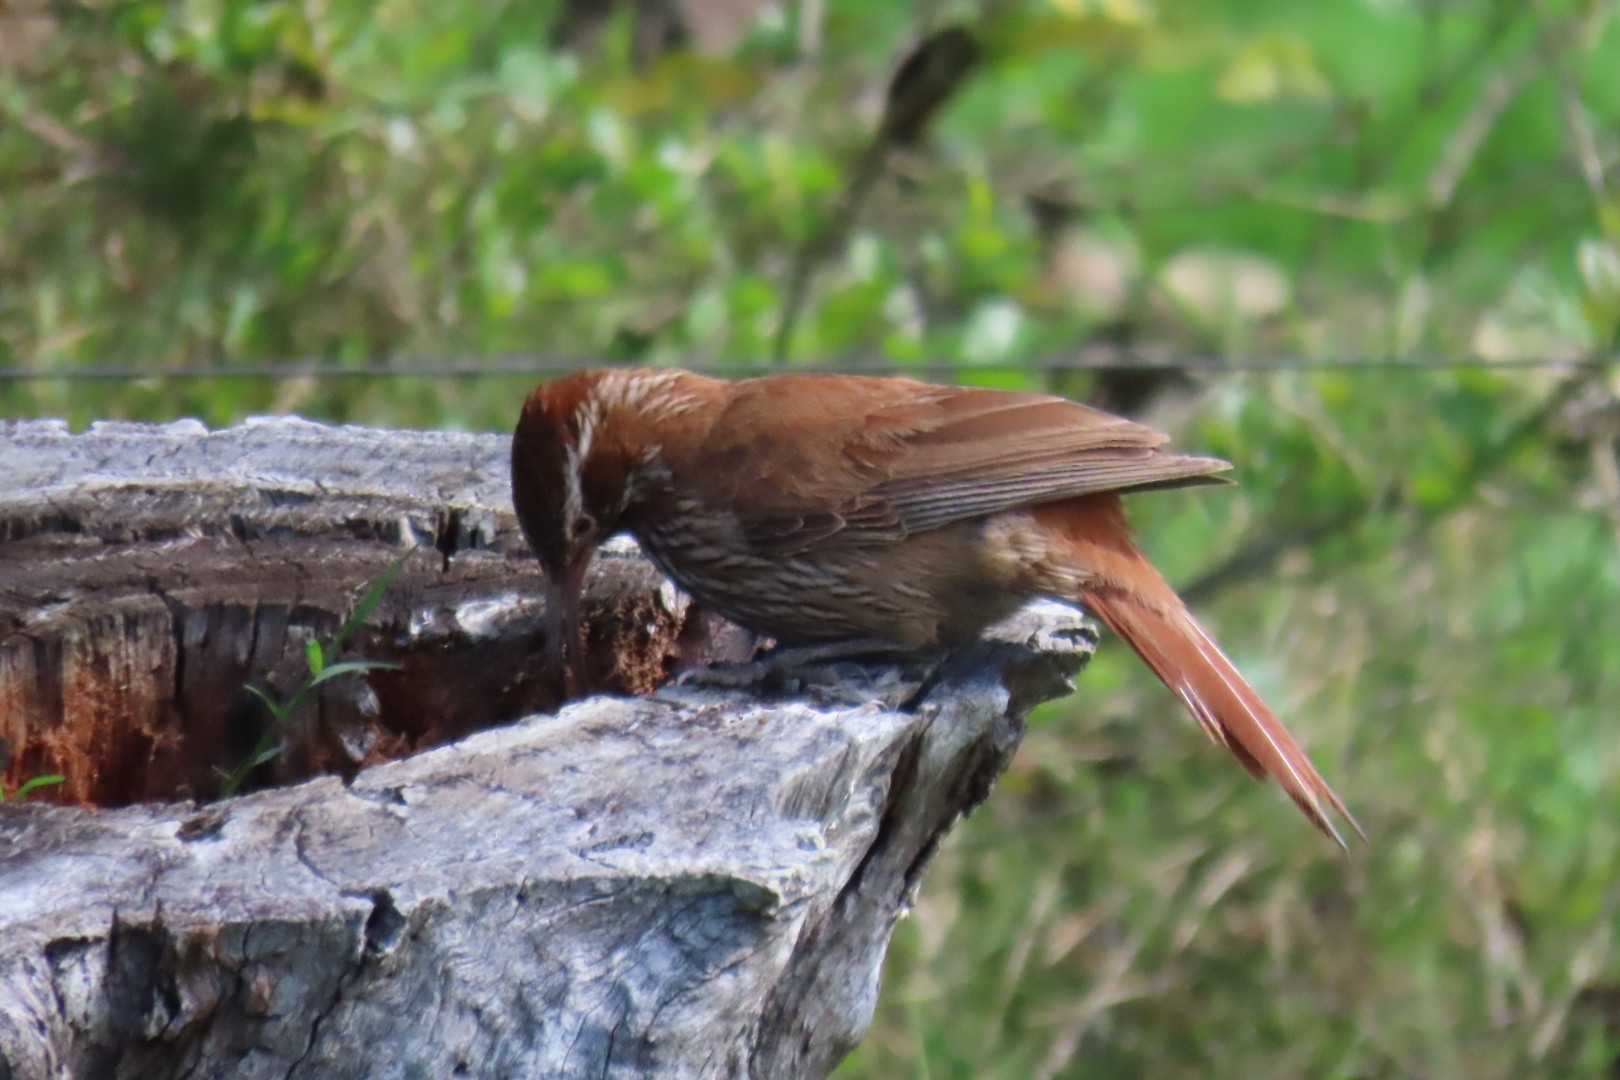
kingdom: Animalia
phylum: Chordata
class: Aves
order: Passeriformes
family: Furnariidae
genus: Drymornis
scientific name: Drymornis bridgesii
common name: Scimitar-billed woodcreeper
